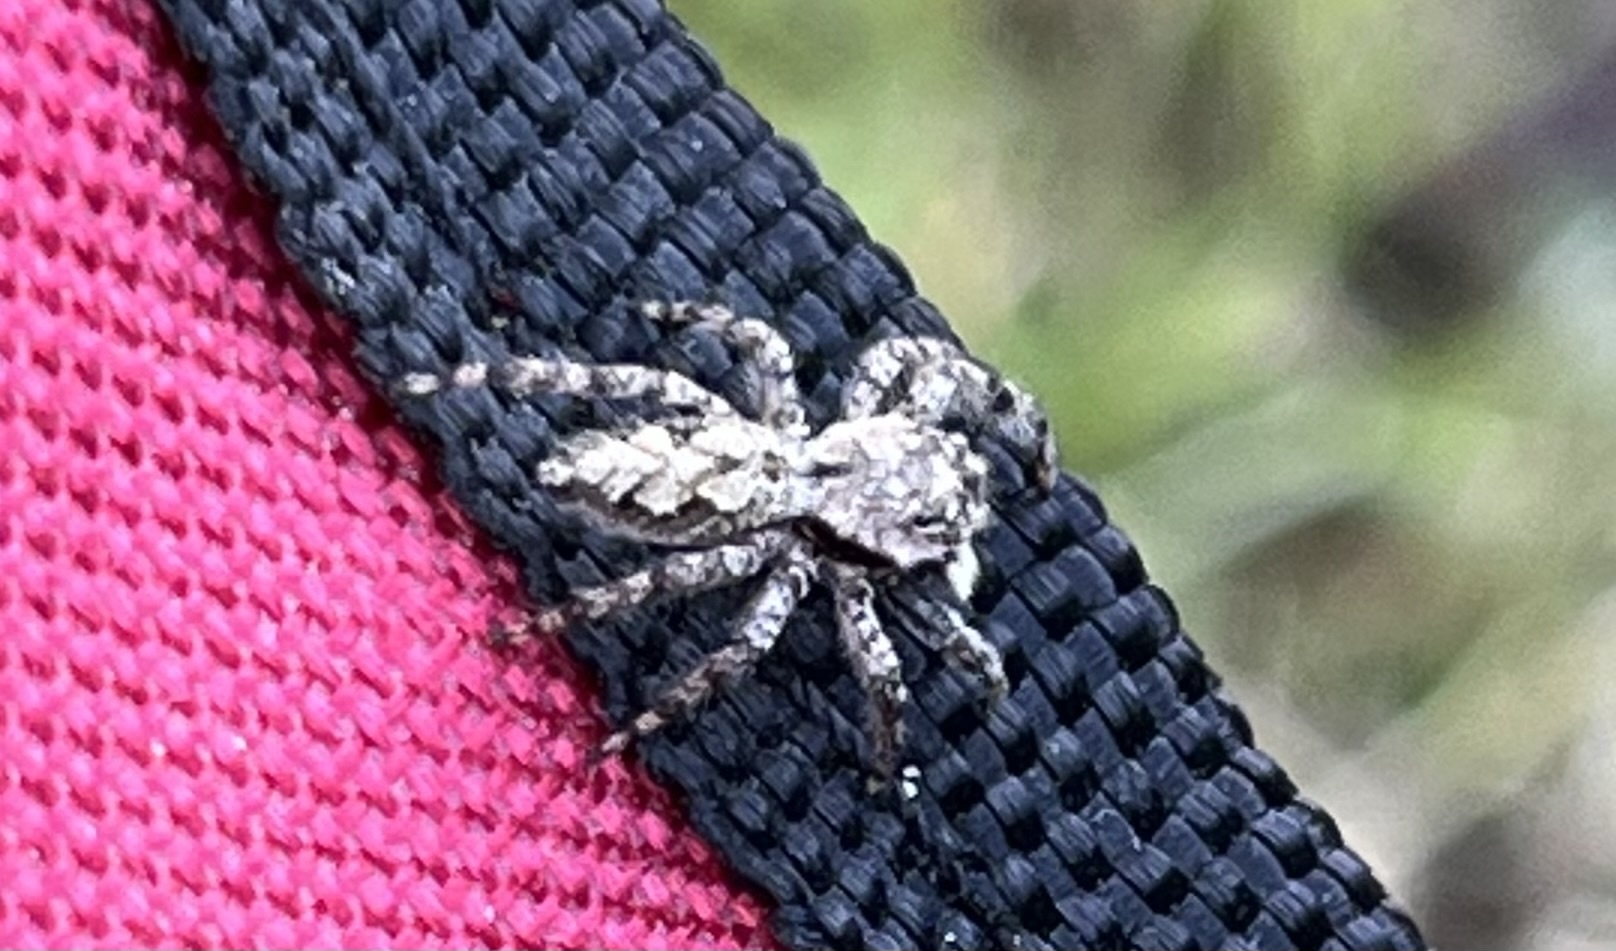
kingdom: Animalia
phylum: Arthropoda
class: Arachnida
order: Araneae
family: Salticidae
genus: Platycryptus
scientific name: Platycryptus undatus
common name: Tan jumping spider
